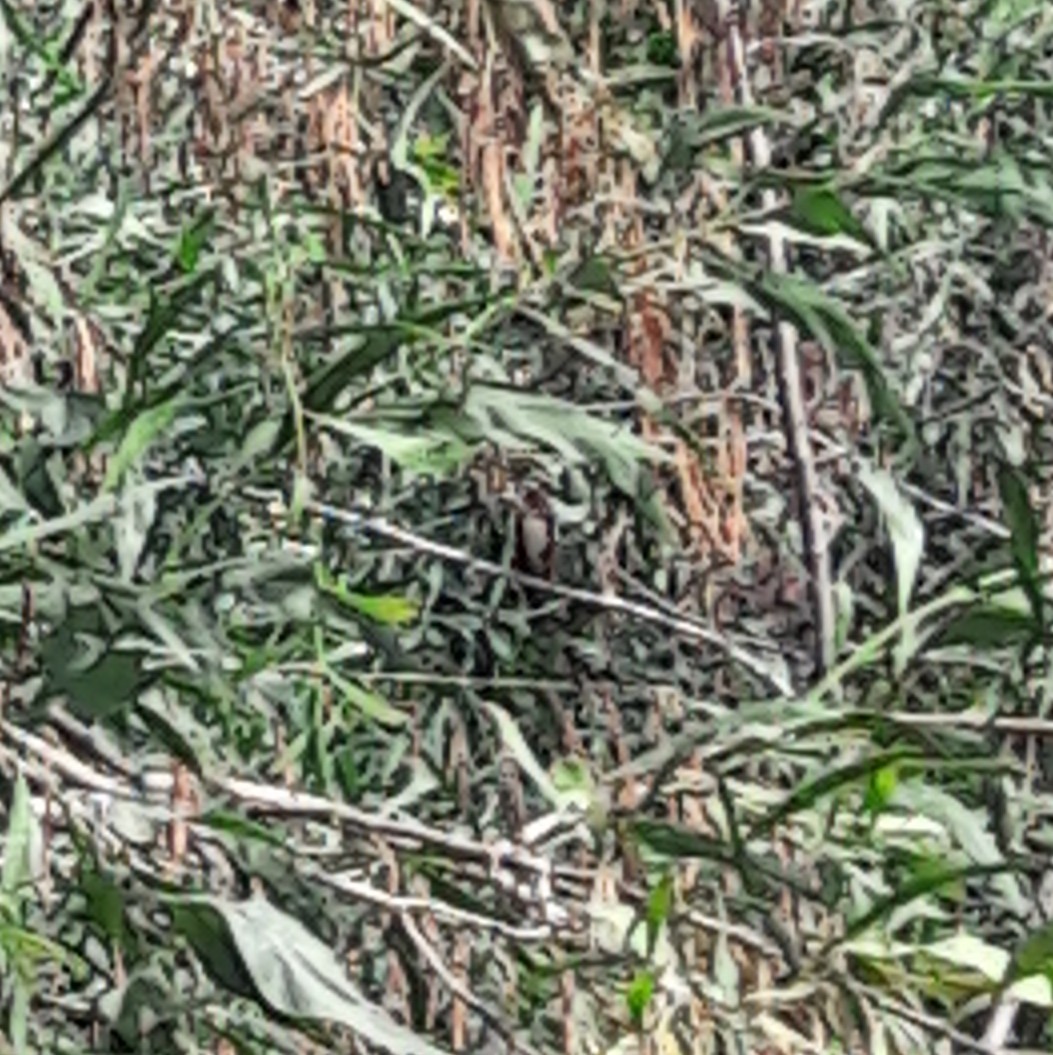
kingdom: Animalia
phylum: Chordata
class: Aves
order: Coraciiformes
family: Alcedinidae
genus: Halcyon
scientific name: Halcyon smyrnensis
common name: White-throated kingfisher
